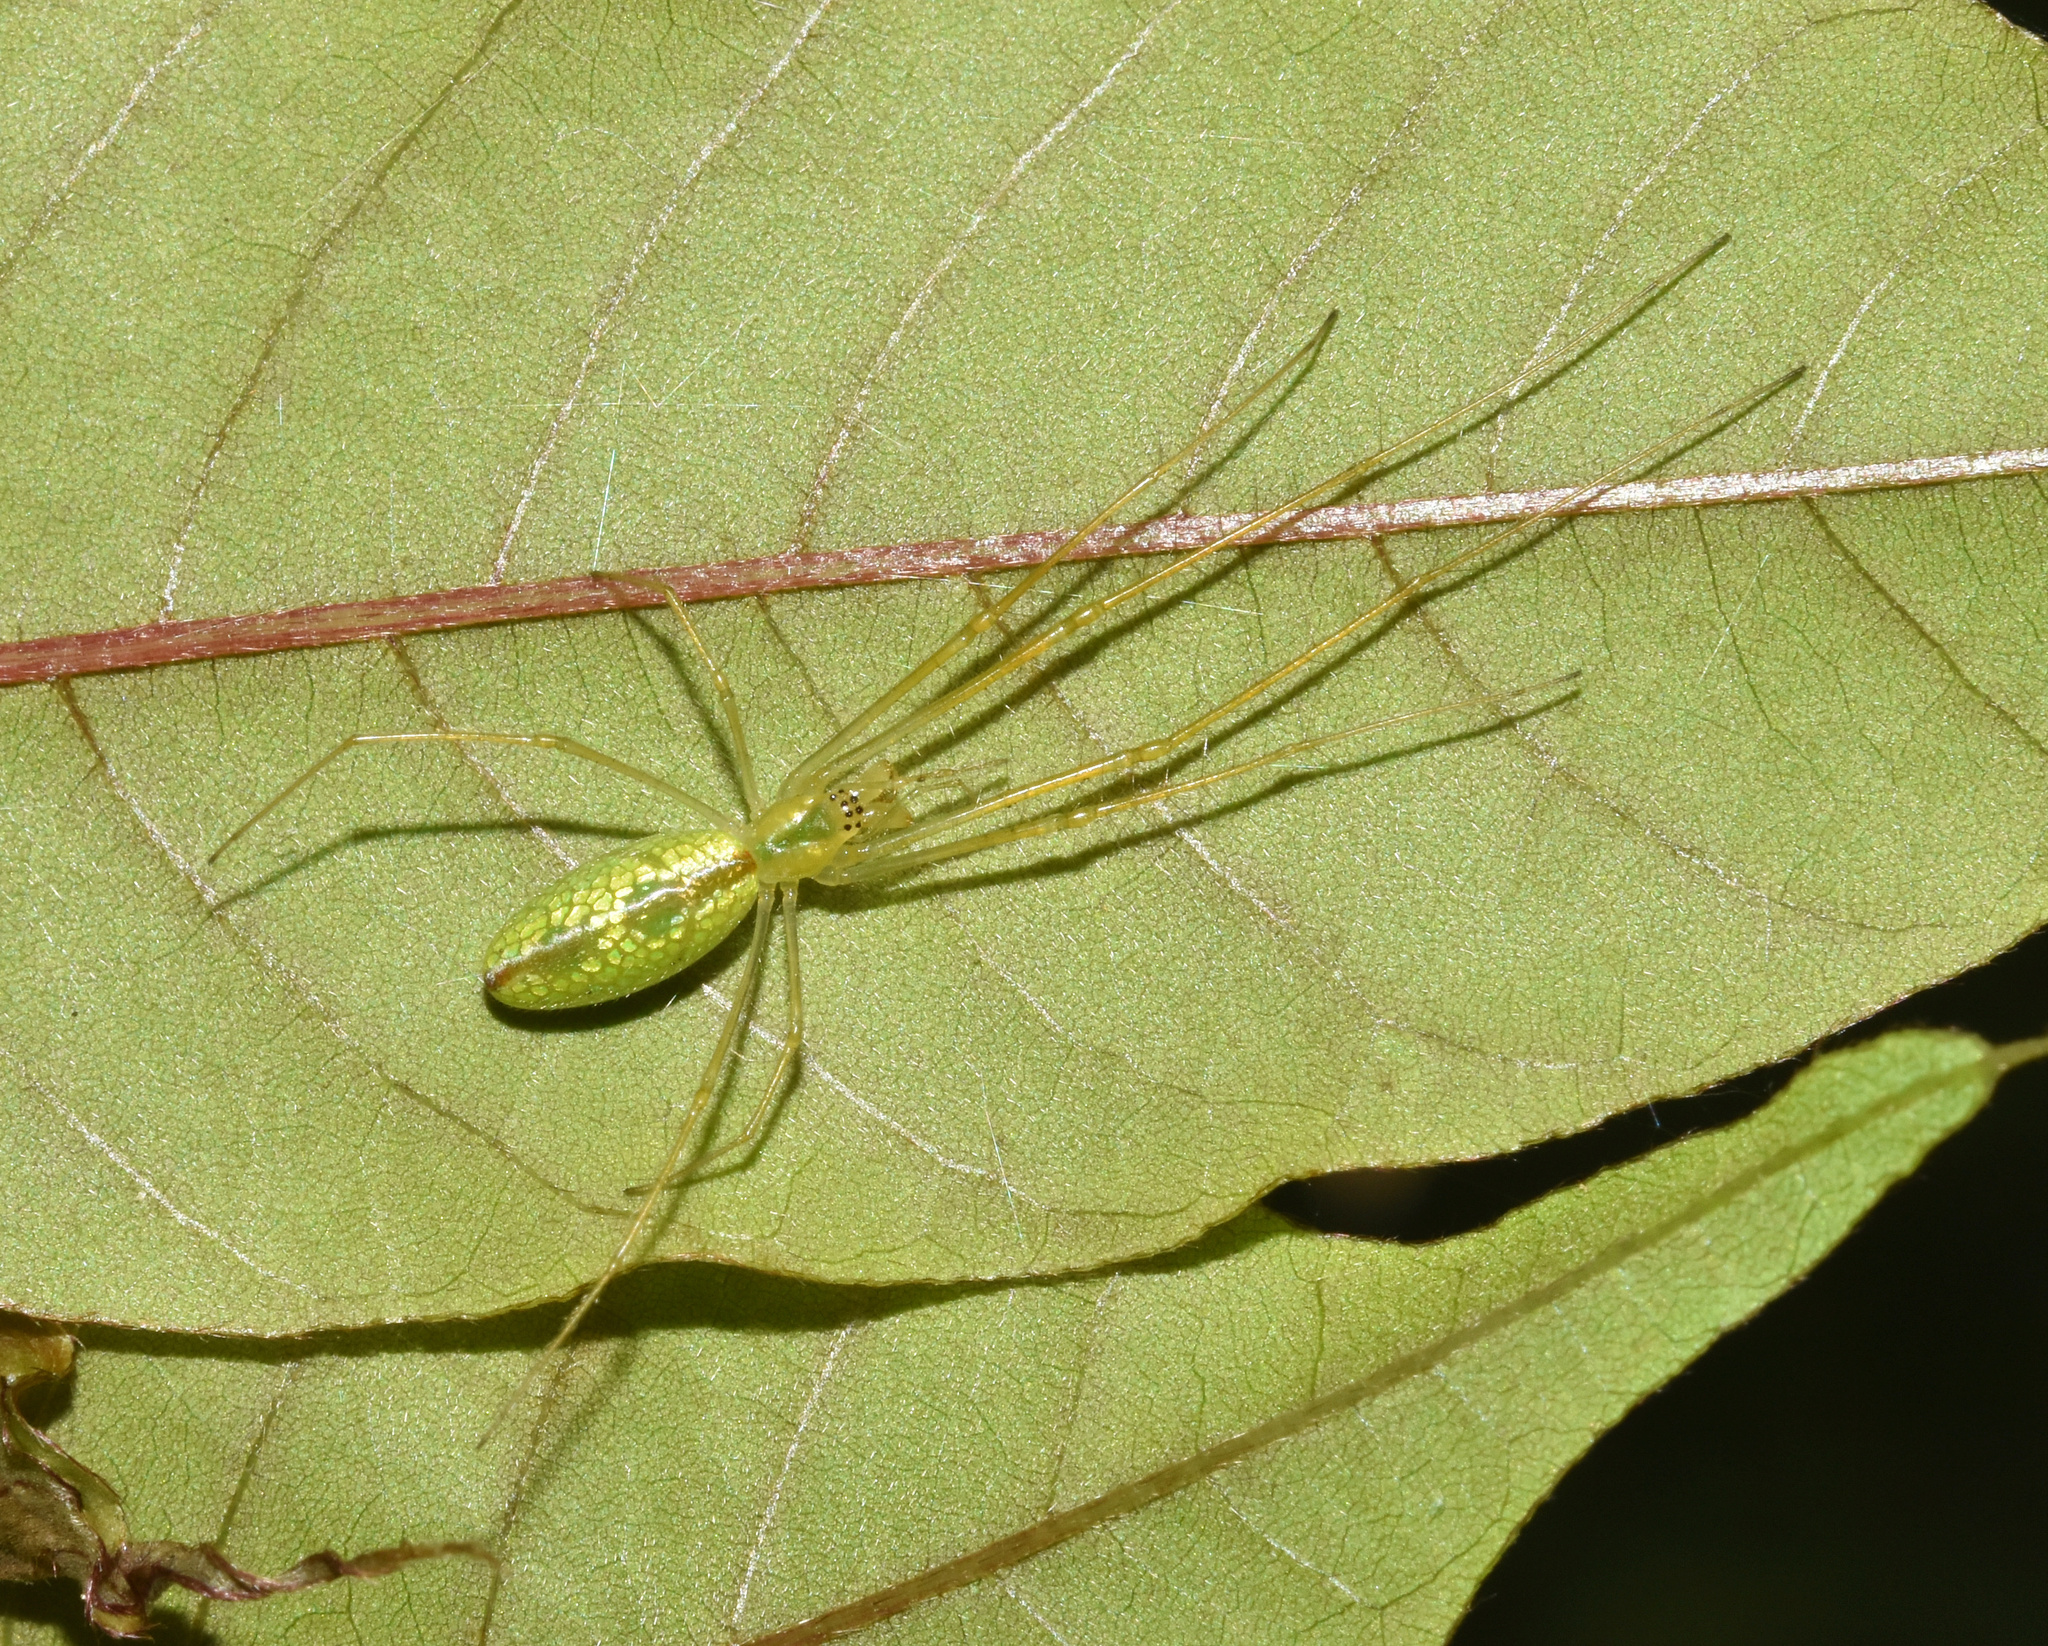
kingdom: Animalia
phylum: Arthropoda
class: Arachnida
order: Araneae
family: Tetragnathidae
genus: Tetragnatha
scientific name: Tetragnatha subsquamata
